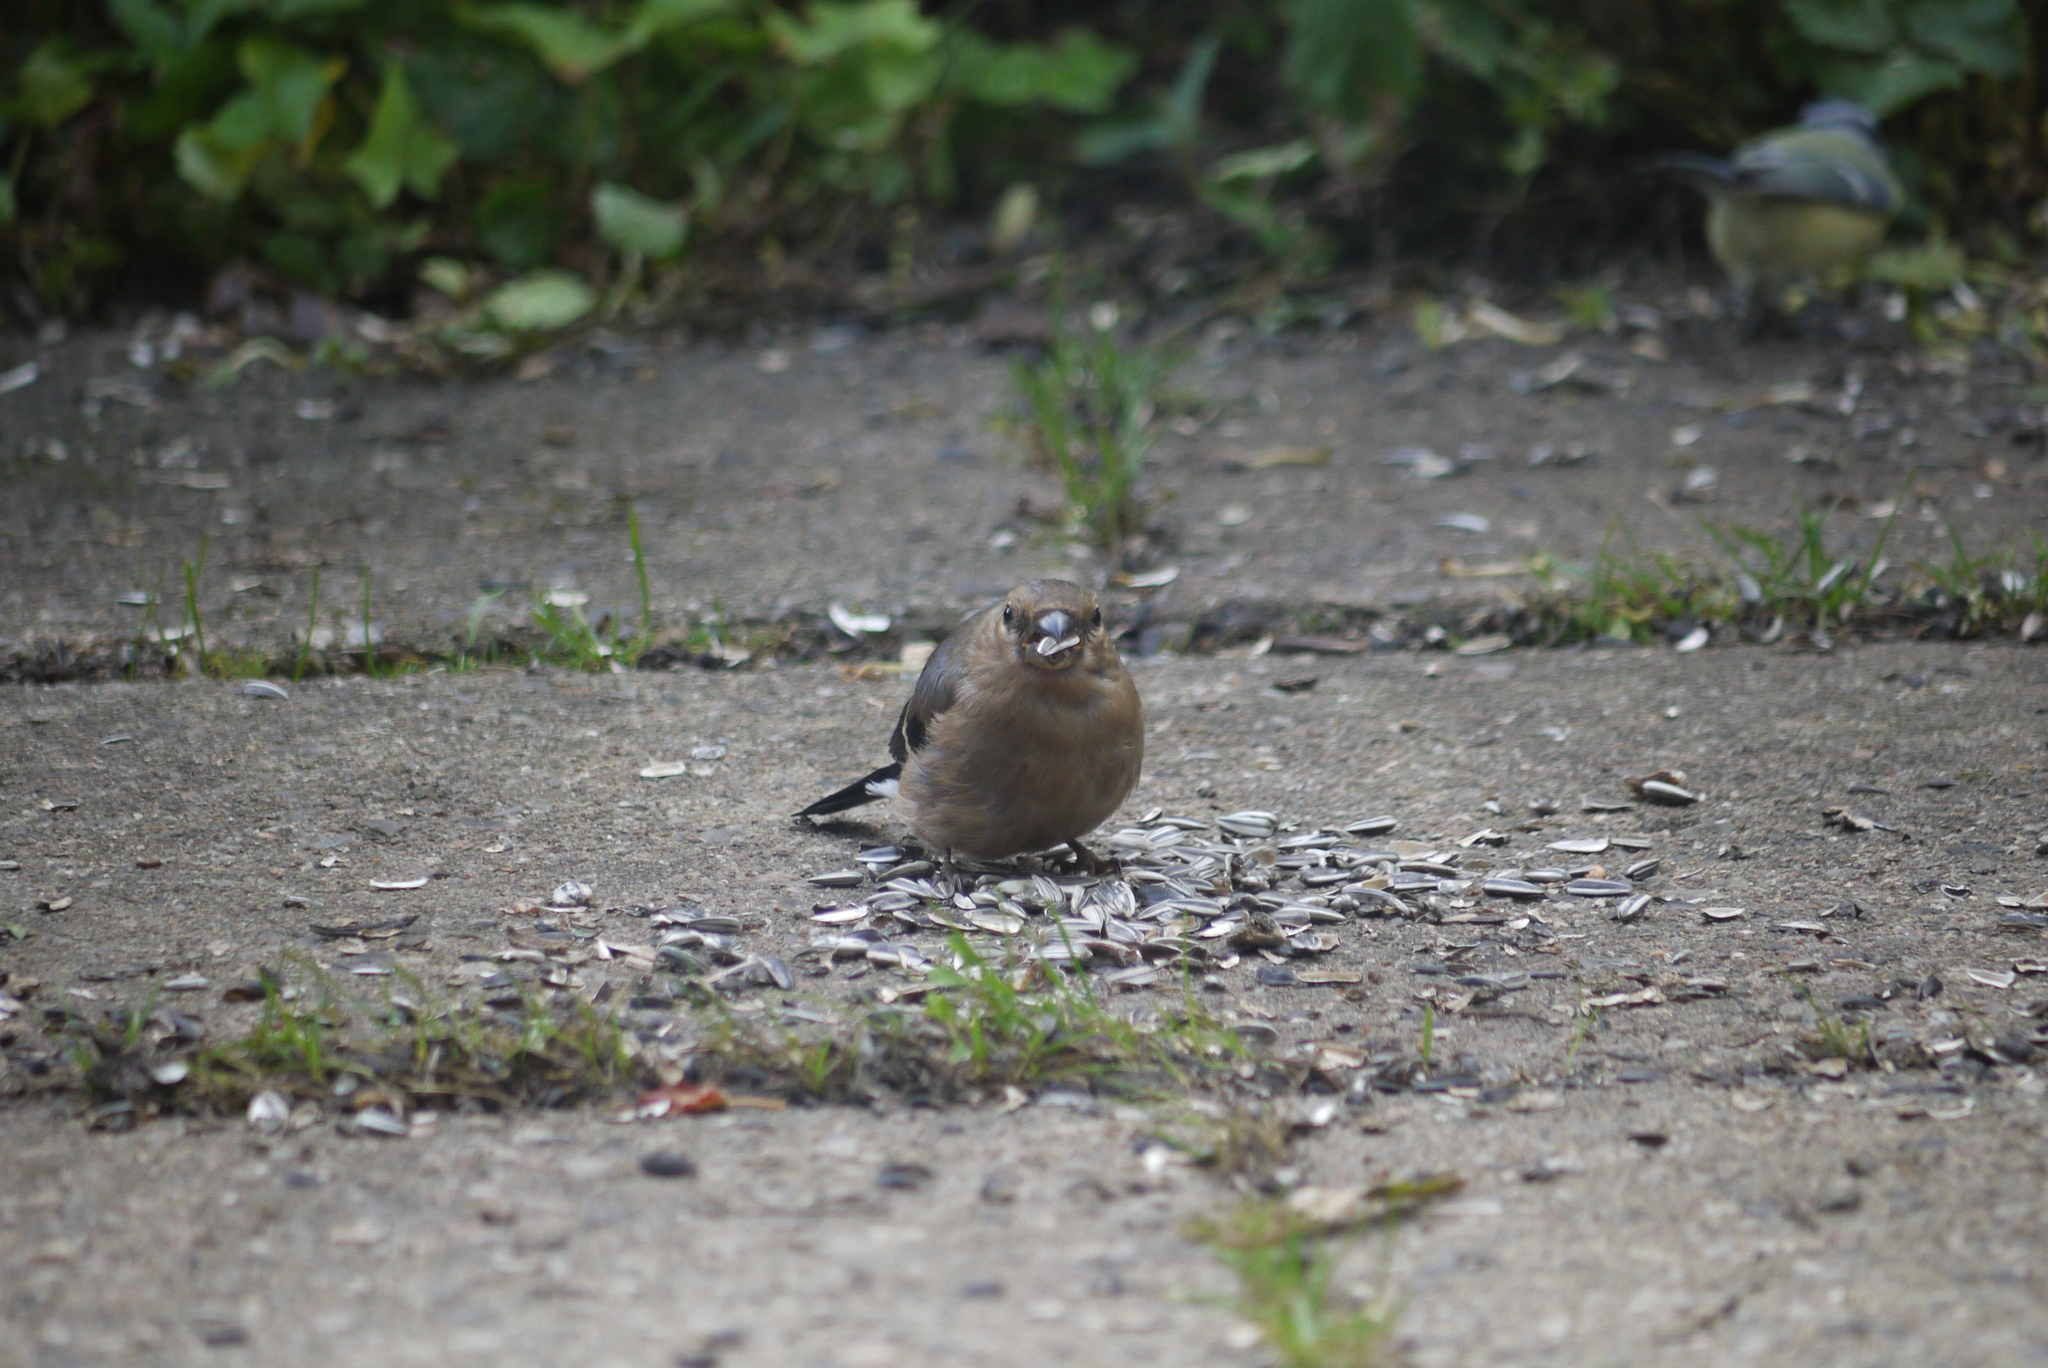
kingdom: Animalia
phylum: Chordata
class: Aves
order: Passeriformes
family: Fringillidae
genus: Pyrrhula
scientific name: Pyrrhula pyrrhula
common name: Eurasian bullfinch
